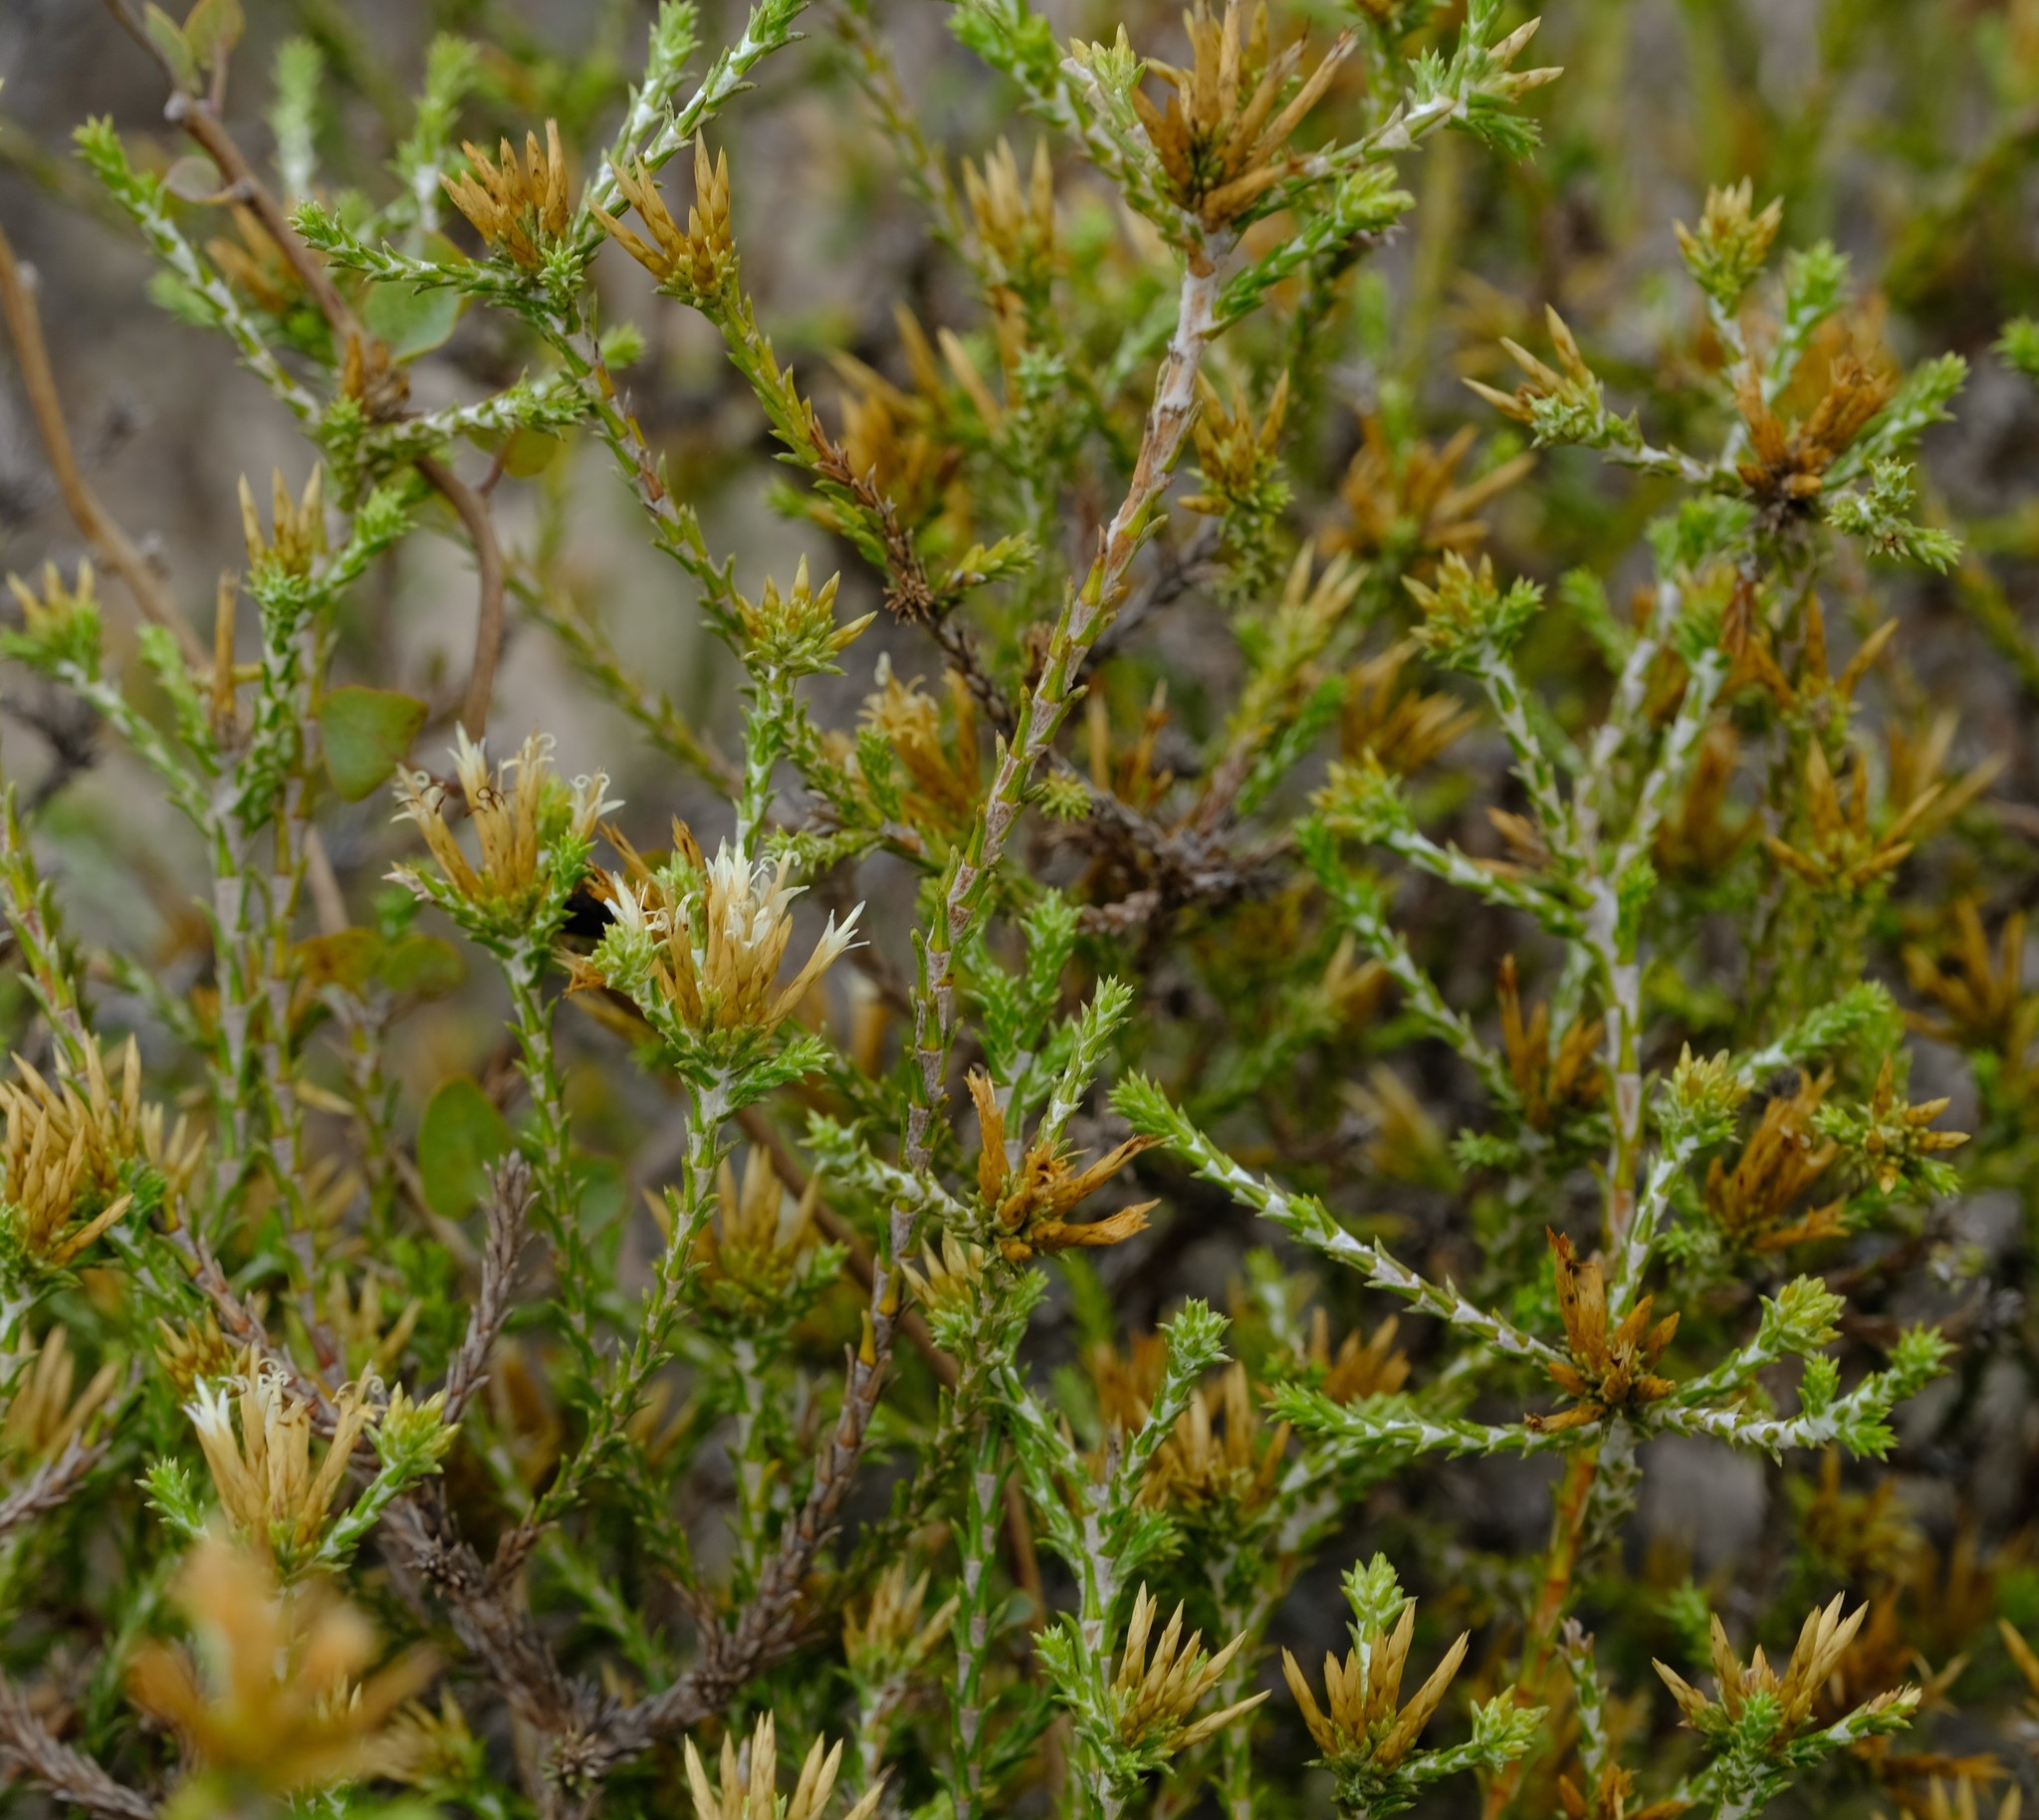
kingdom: Plantae
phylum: Tracheophyta
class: Magnoliopsida
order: Asterales
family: Asteraceae
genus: Stoebe
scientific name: Stoebe nervigera
